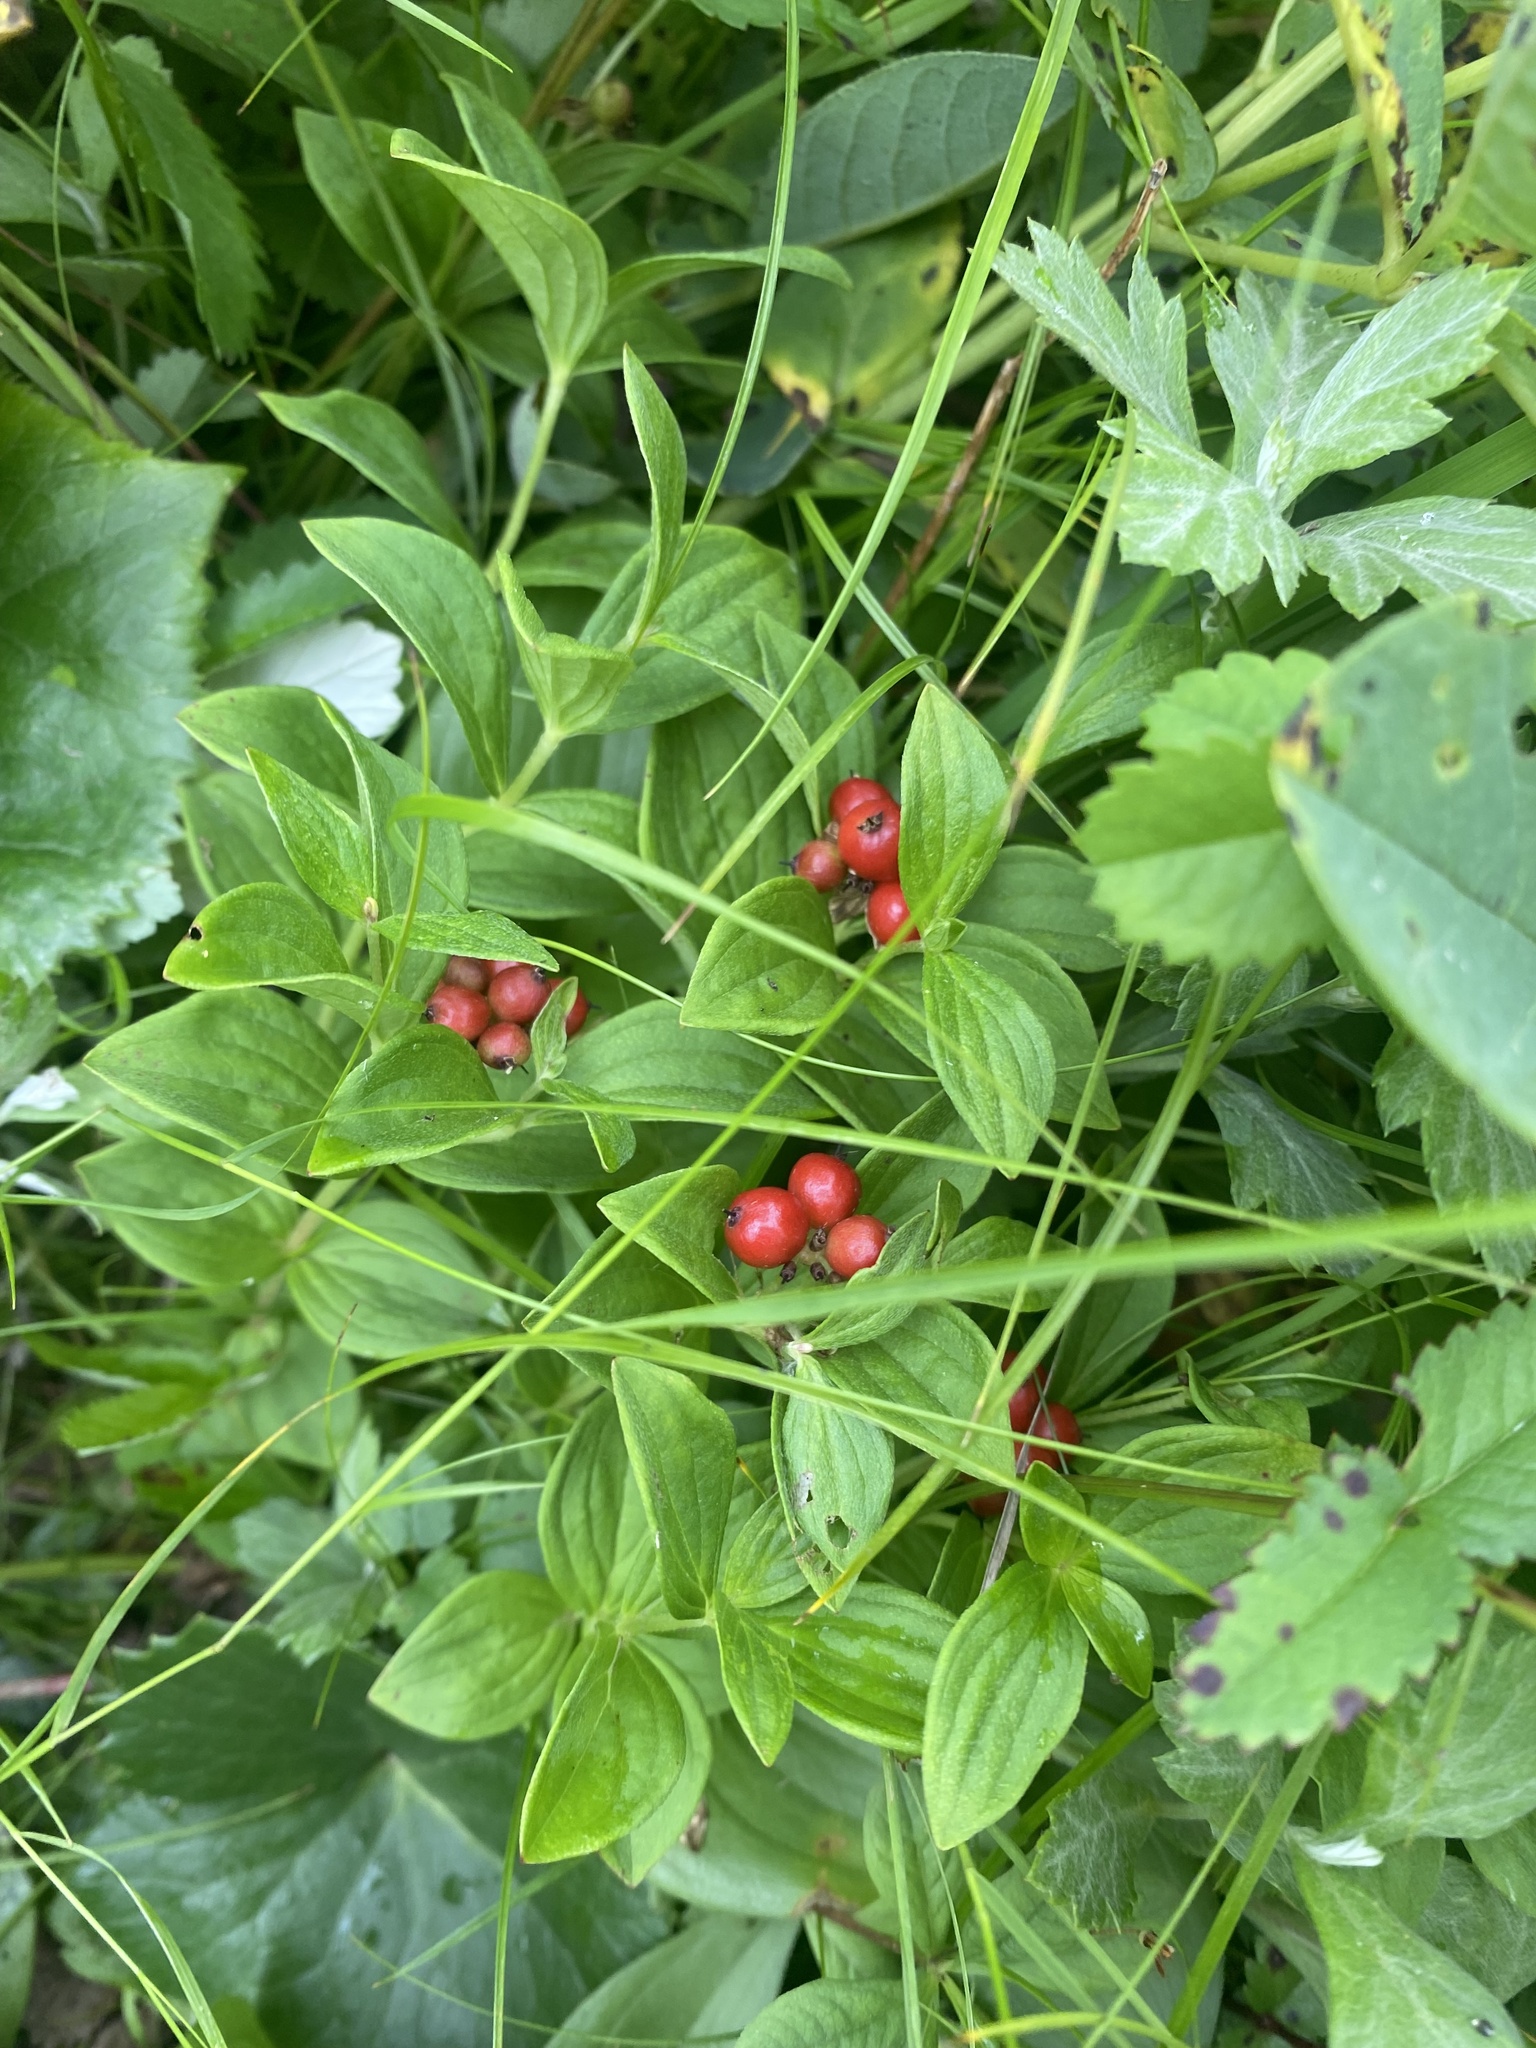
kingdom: Plantae
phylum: Tracheophyta
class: Magnoliopsida
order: Cornales
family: Cornaceae
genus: Cornus
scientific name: Cornus suecica
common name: Dwarf cornel
